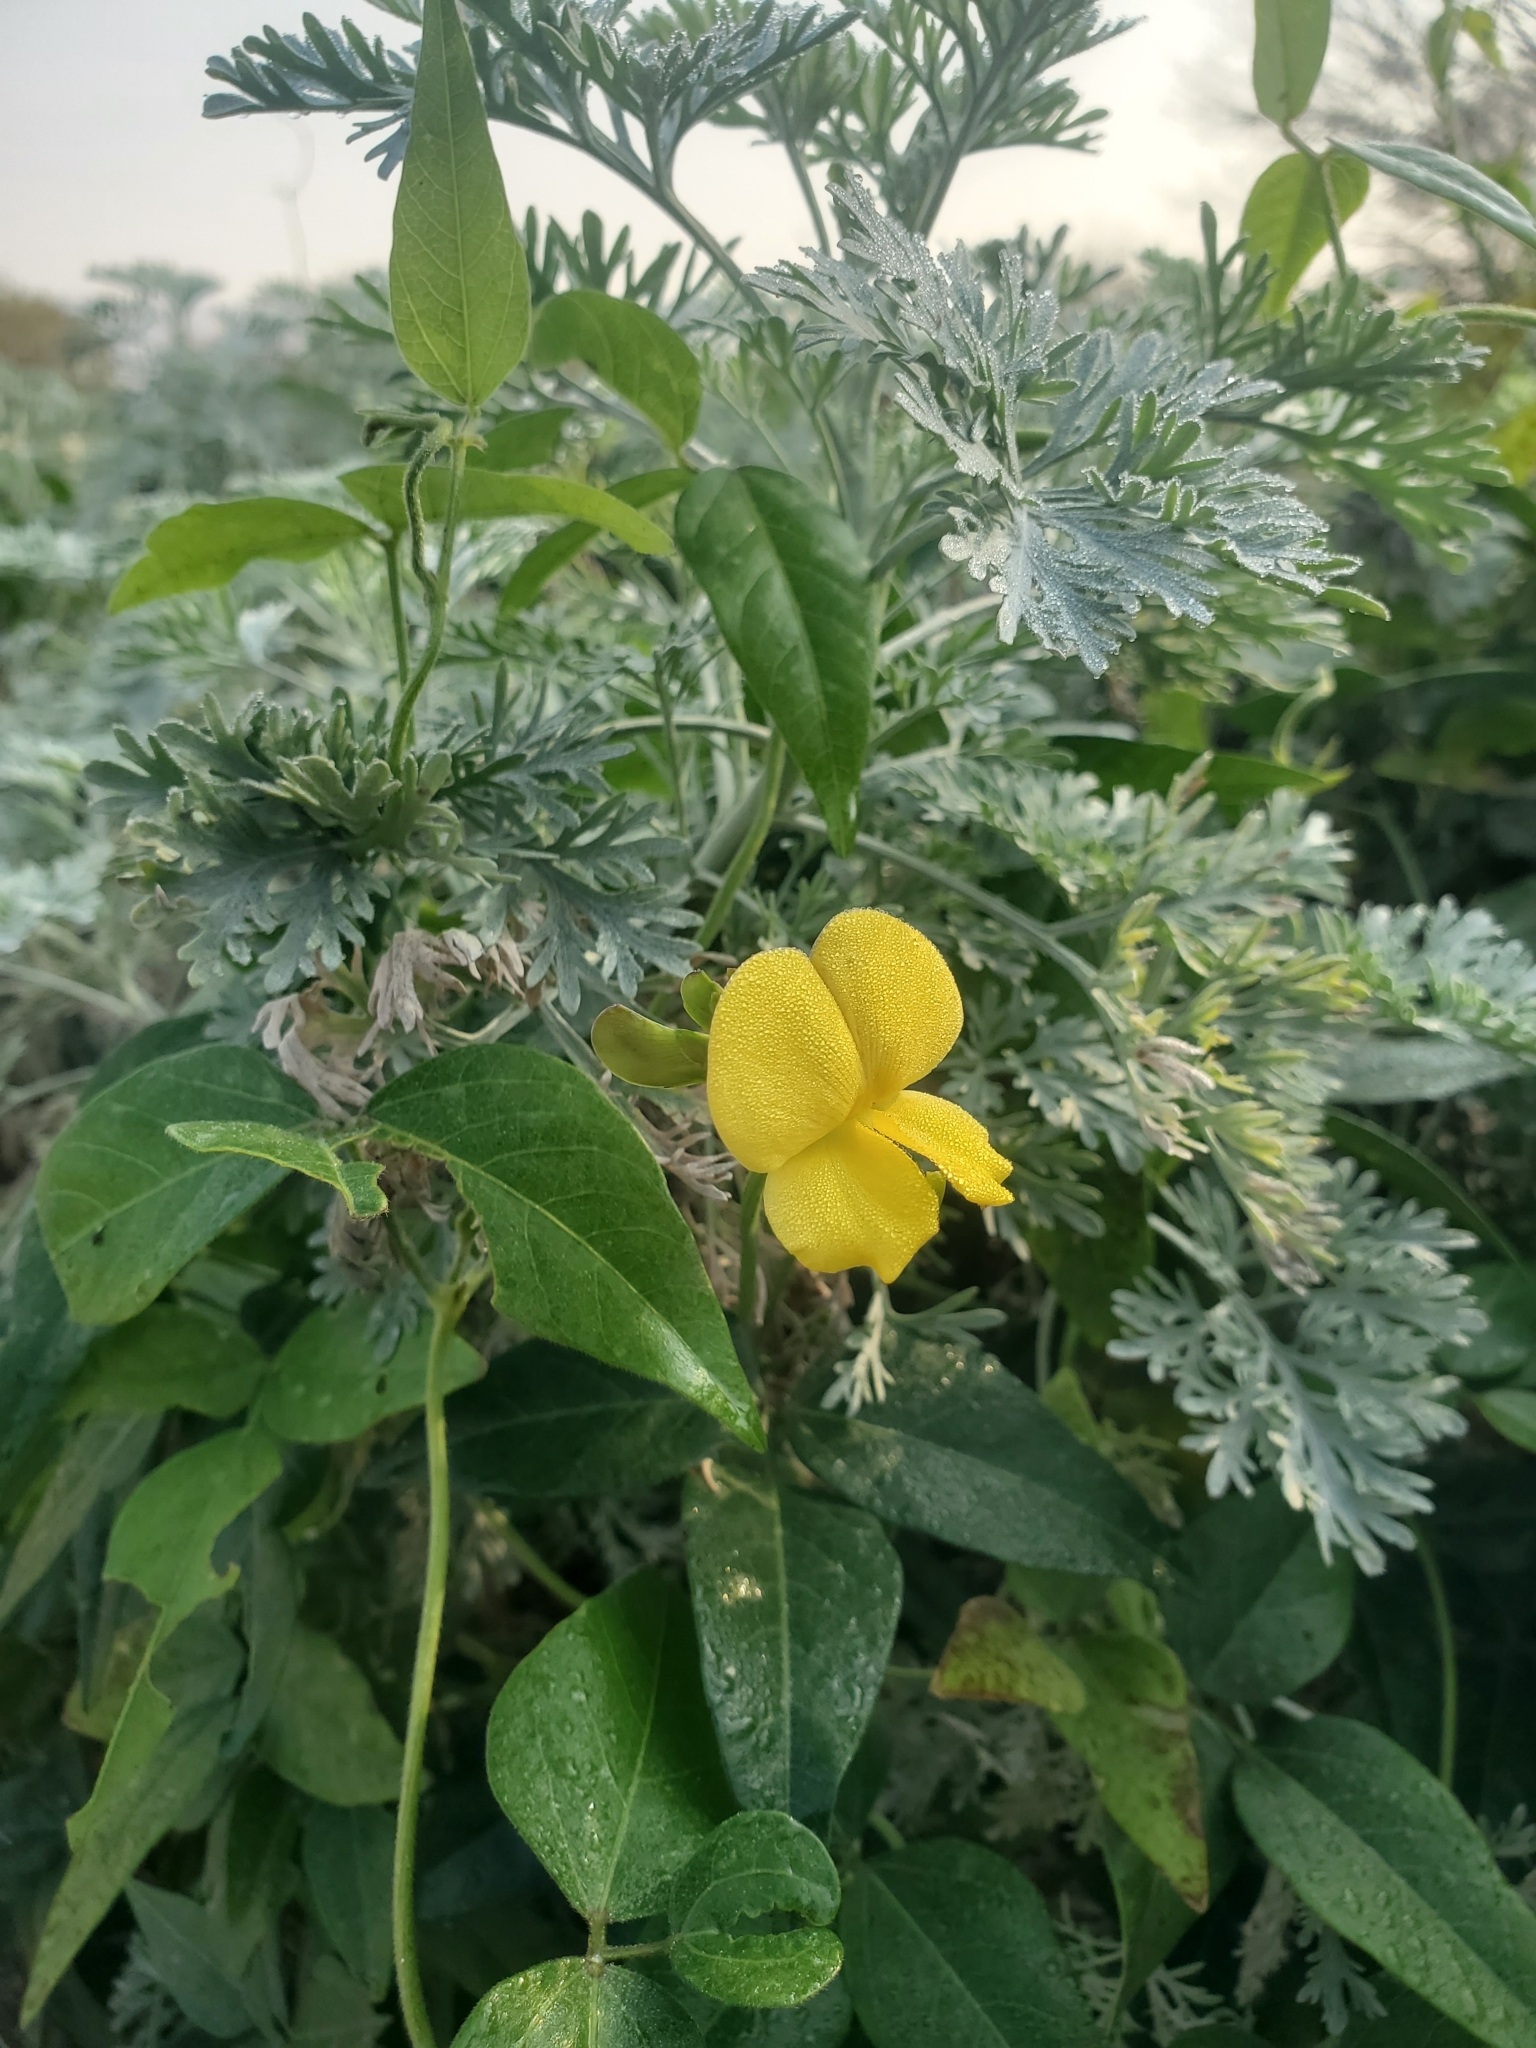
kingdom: Plantae
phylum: Tracheophyta
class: Magnoliopsida
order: Fabales
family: Fabaceae
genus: Vigna
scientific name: Vigna luteola
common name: Hairypod cowpea
